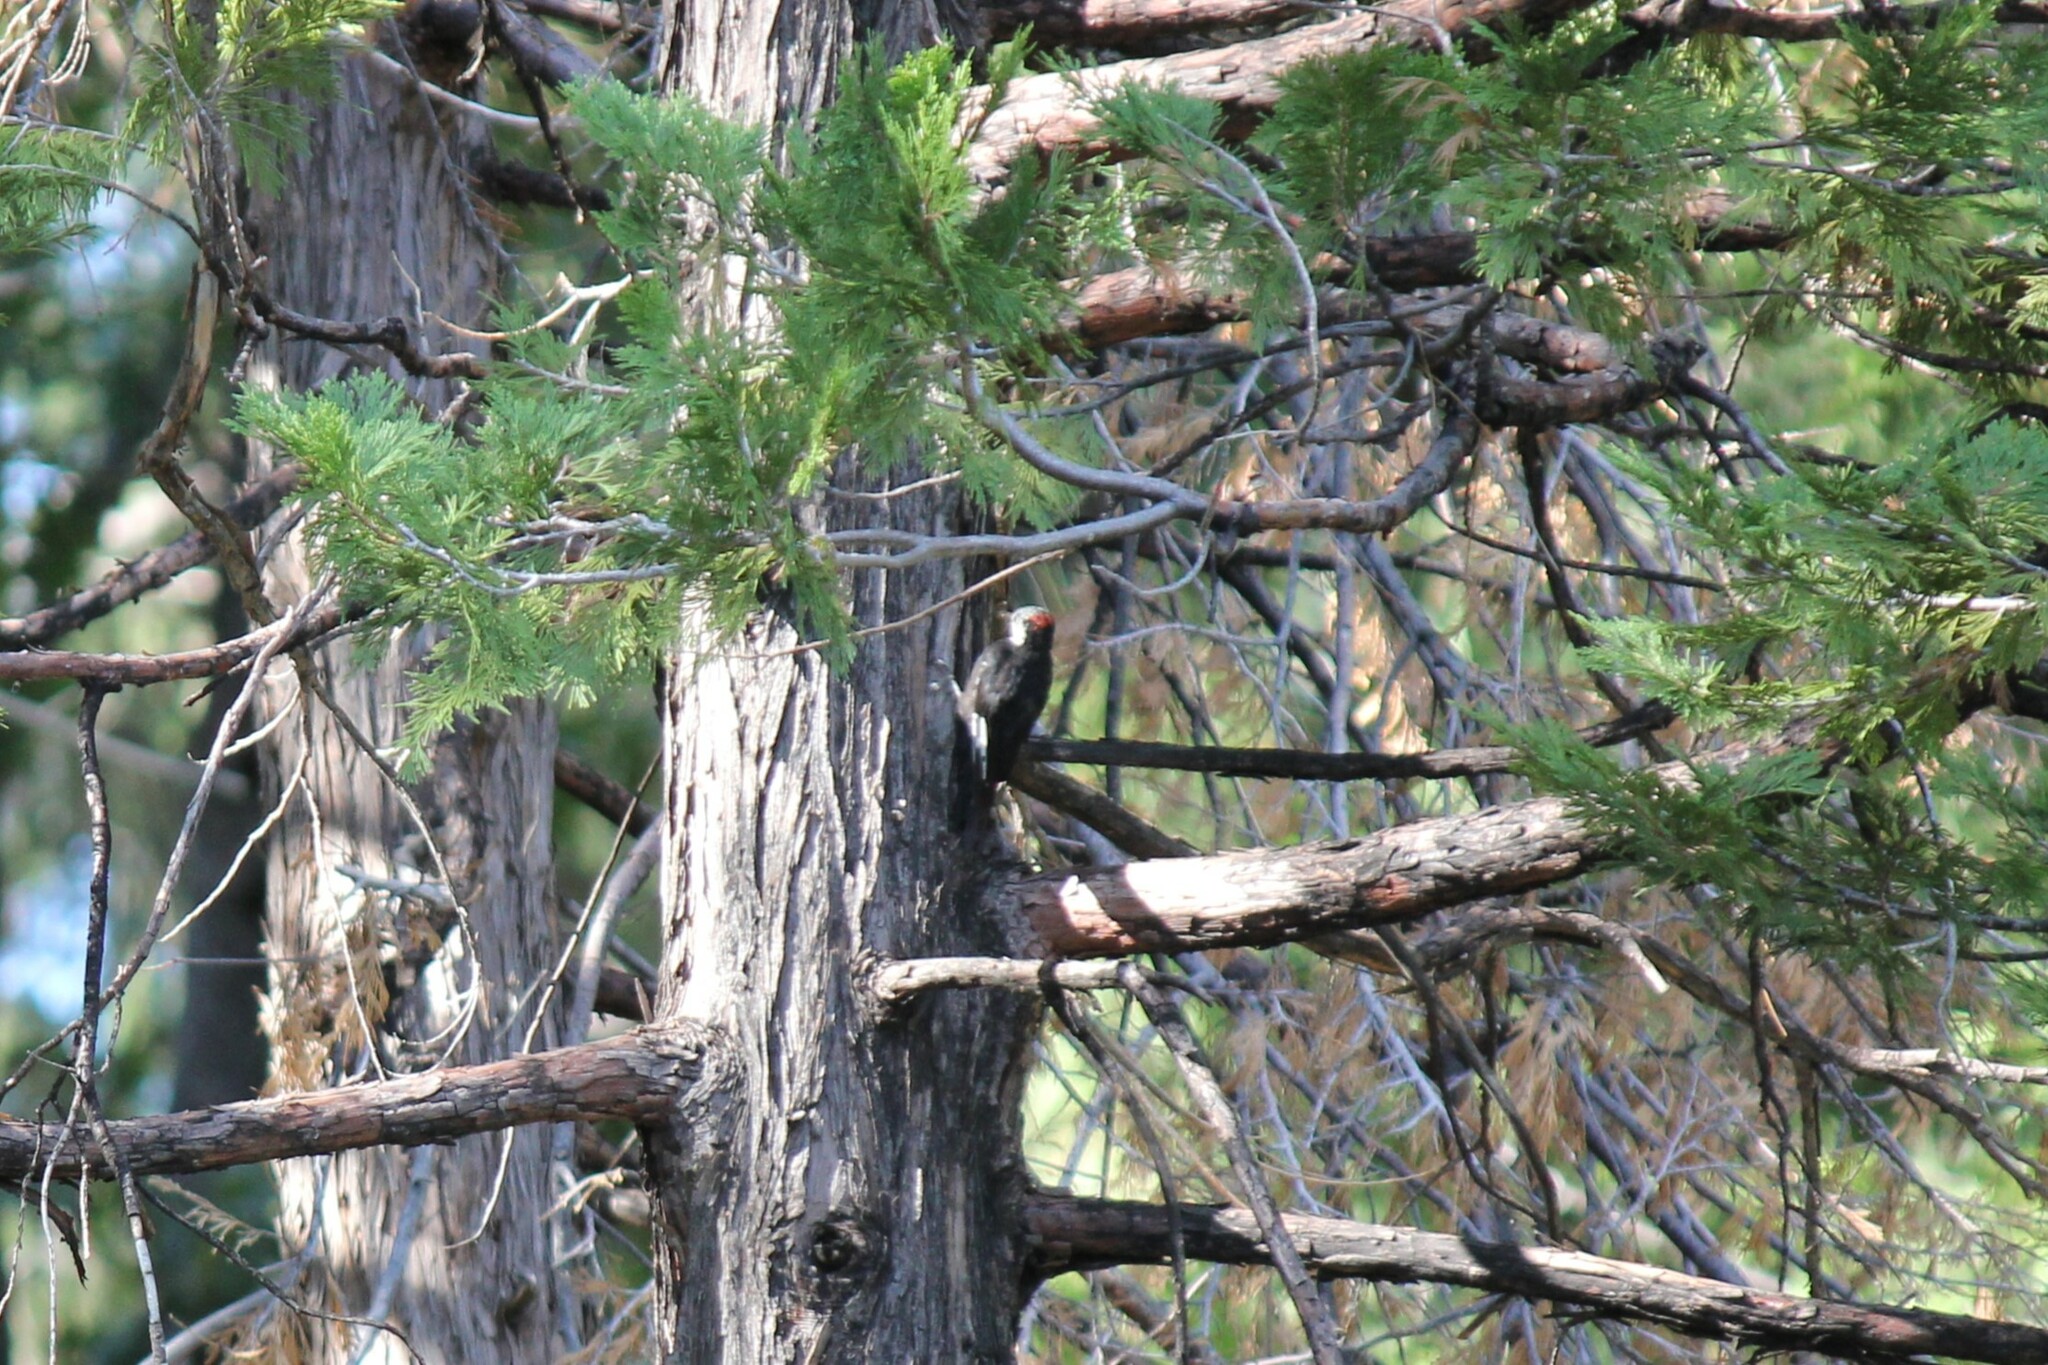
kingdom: Animalia
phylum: Chordata
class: Aves
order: Piciformes
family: Picidae
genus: Leuconotopicus
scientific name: Leuconotopicus albolarvatus
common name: White-headed woodpecker
